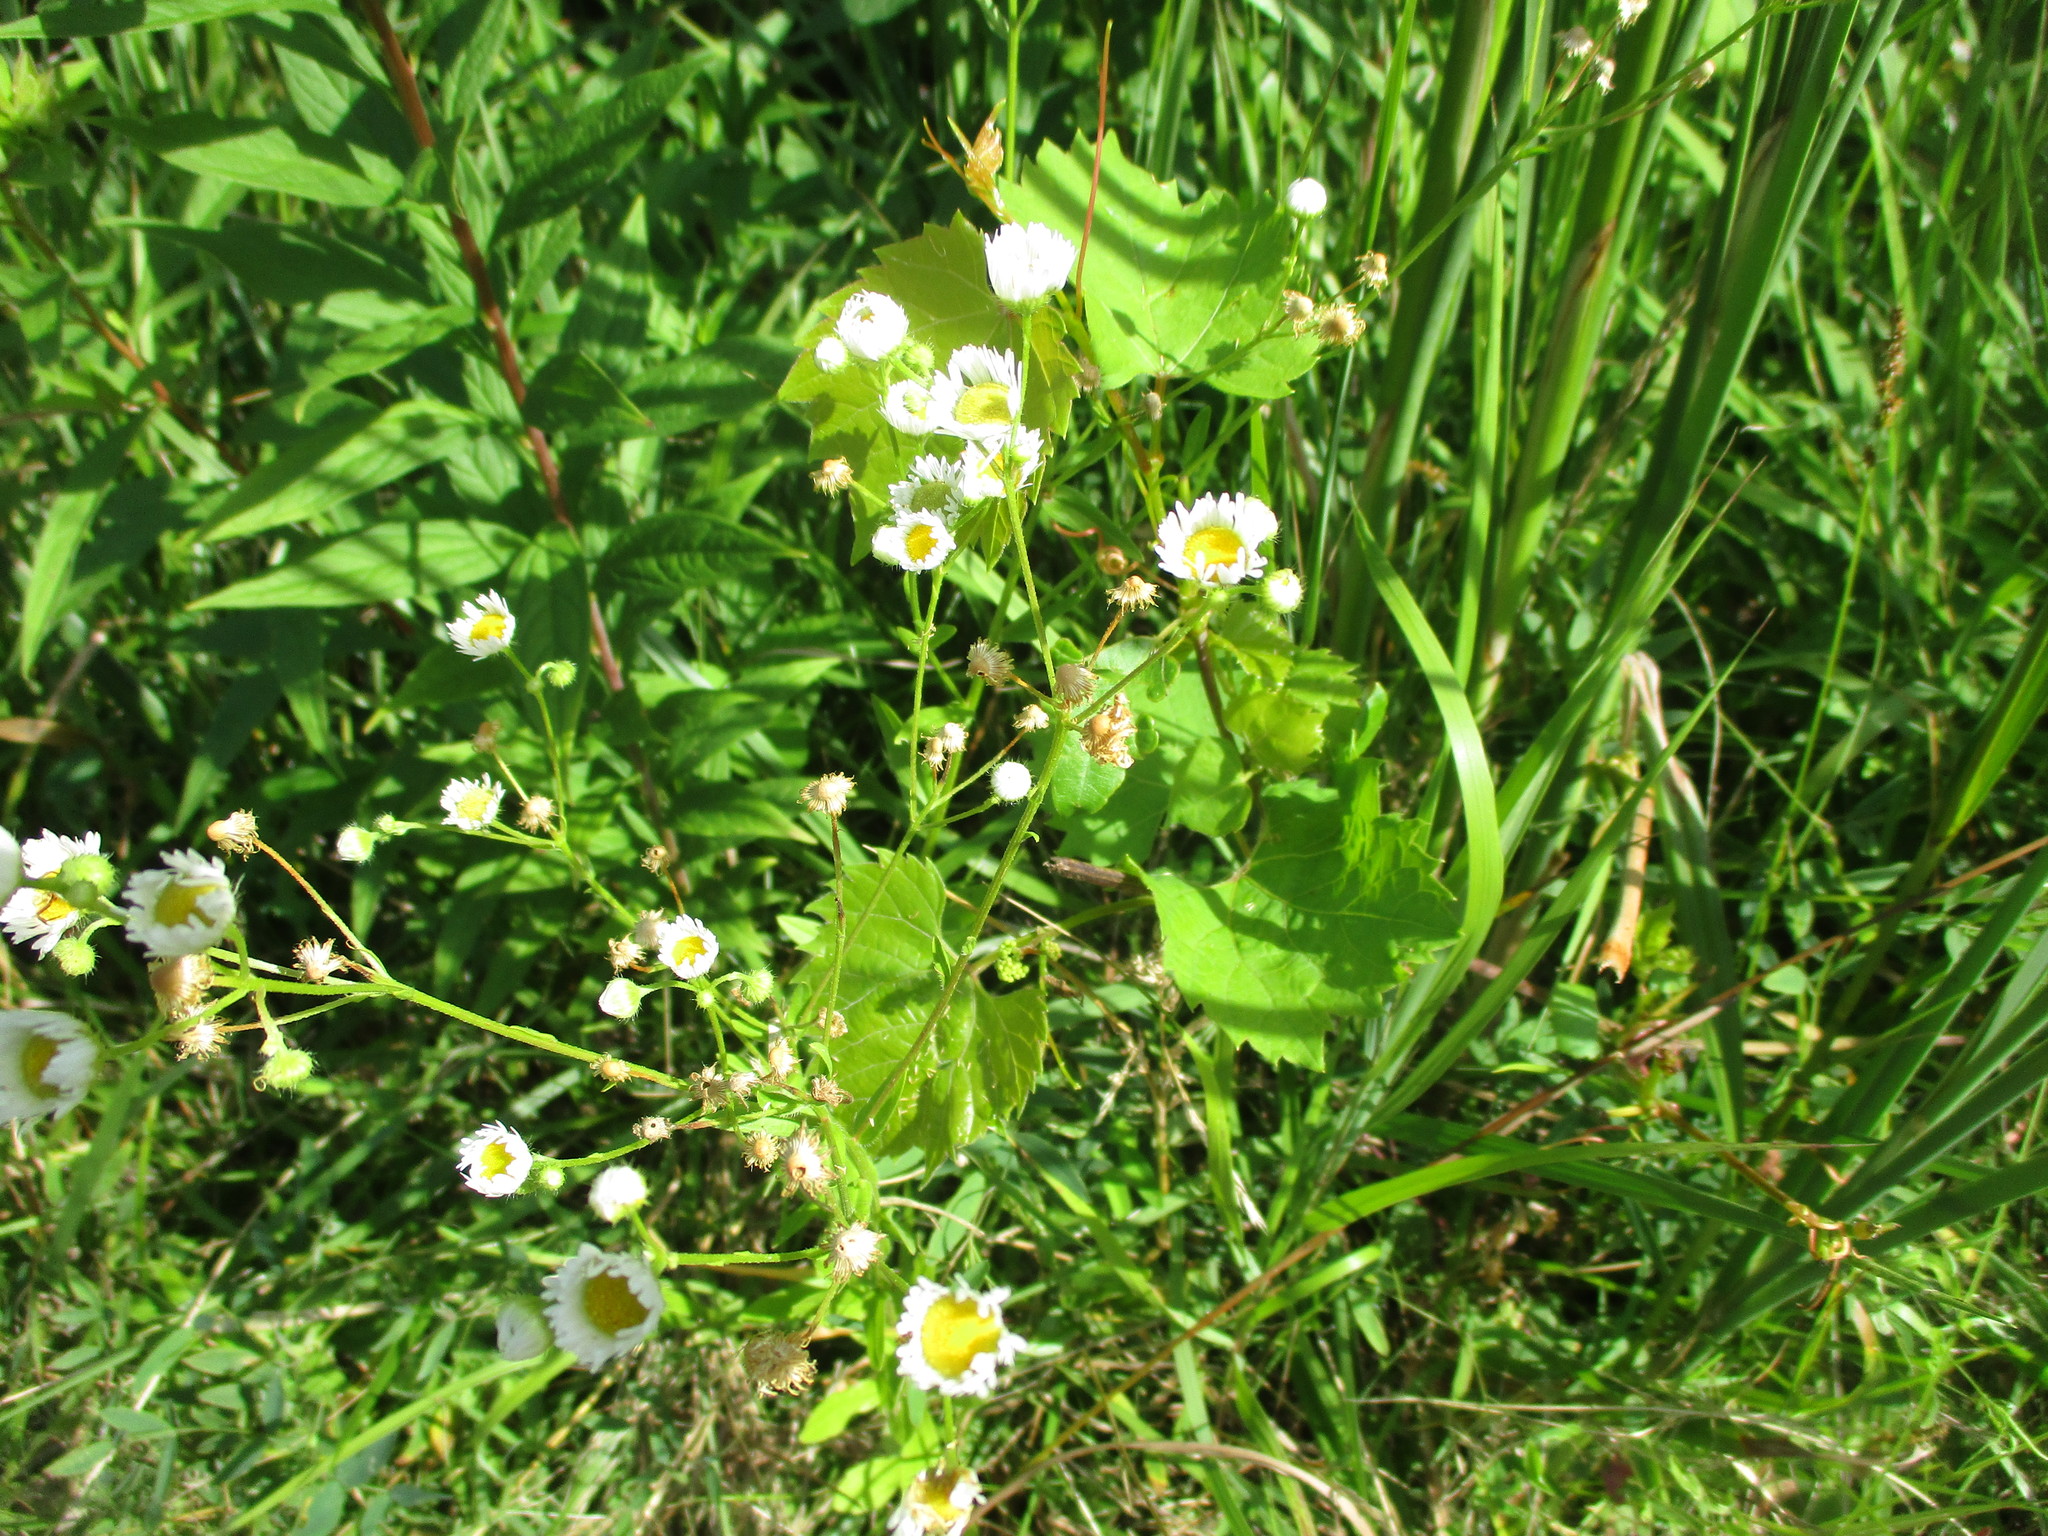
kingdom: Plantae
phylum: Tracheophyta
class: Magnoliopsida
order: Asterales
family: Asteraceae
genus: Erigeron
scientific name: Erigeron strigosus
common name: Common eastern fleabane
